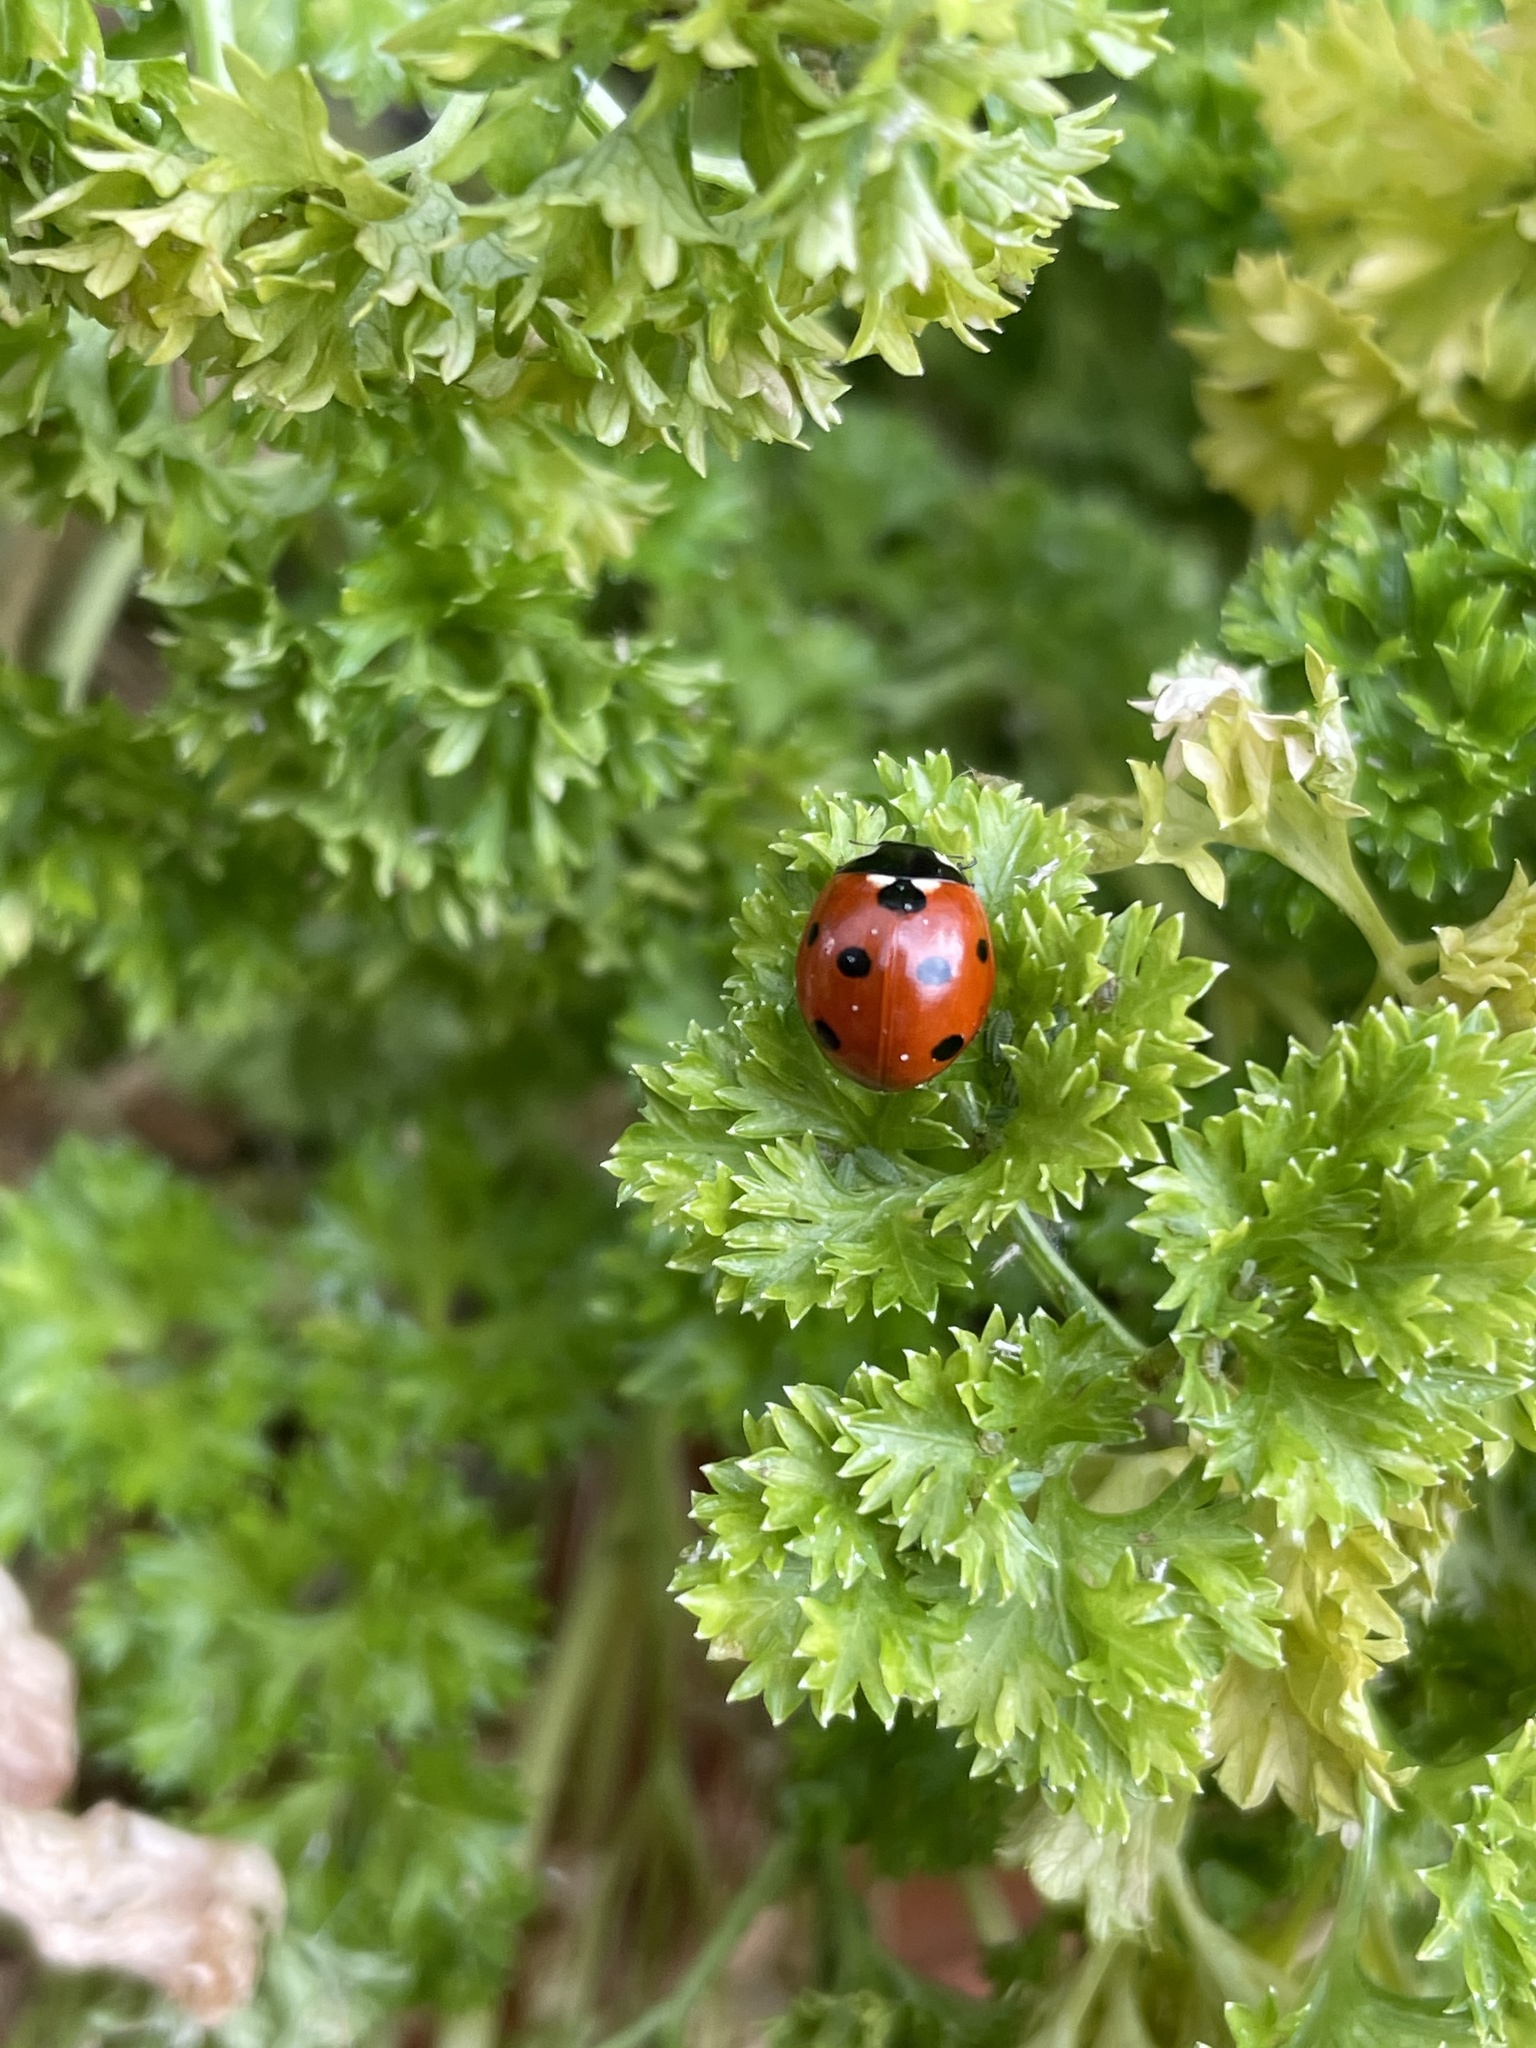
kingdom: Animalia
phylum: Arthropoda
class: Insecta
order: Coleoptera
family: Coccinellidae
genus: Coccinella
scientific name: Coccinella septempunctata
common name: Sevenspotted lady beetle
